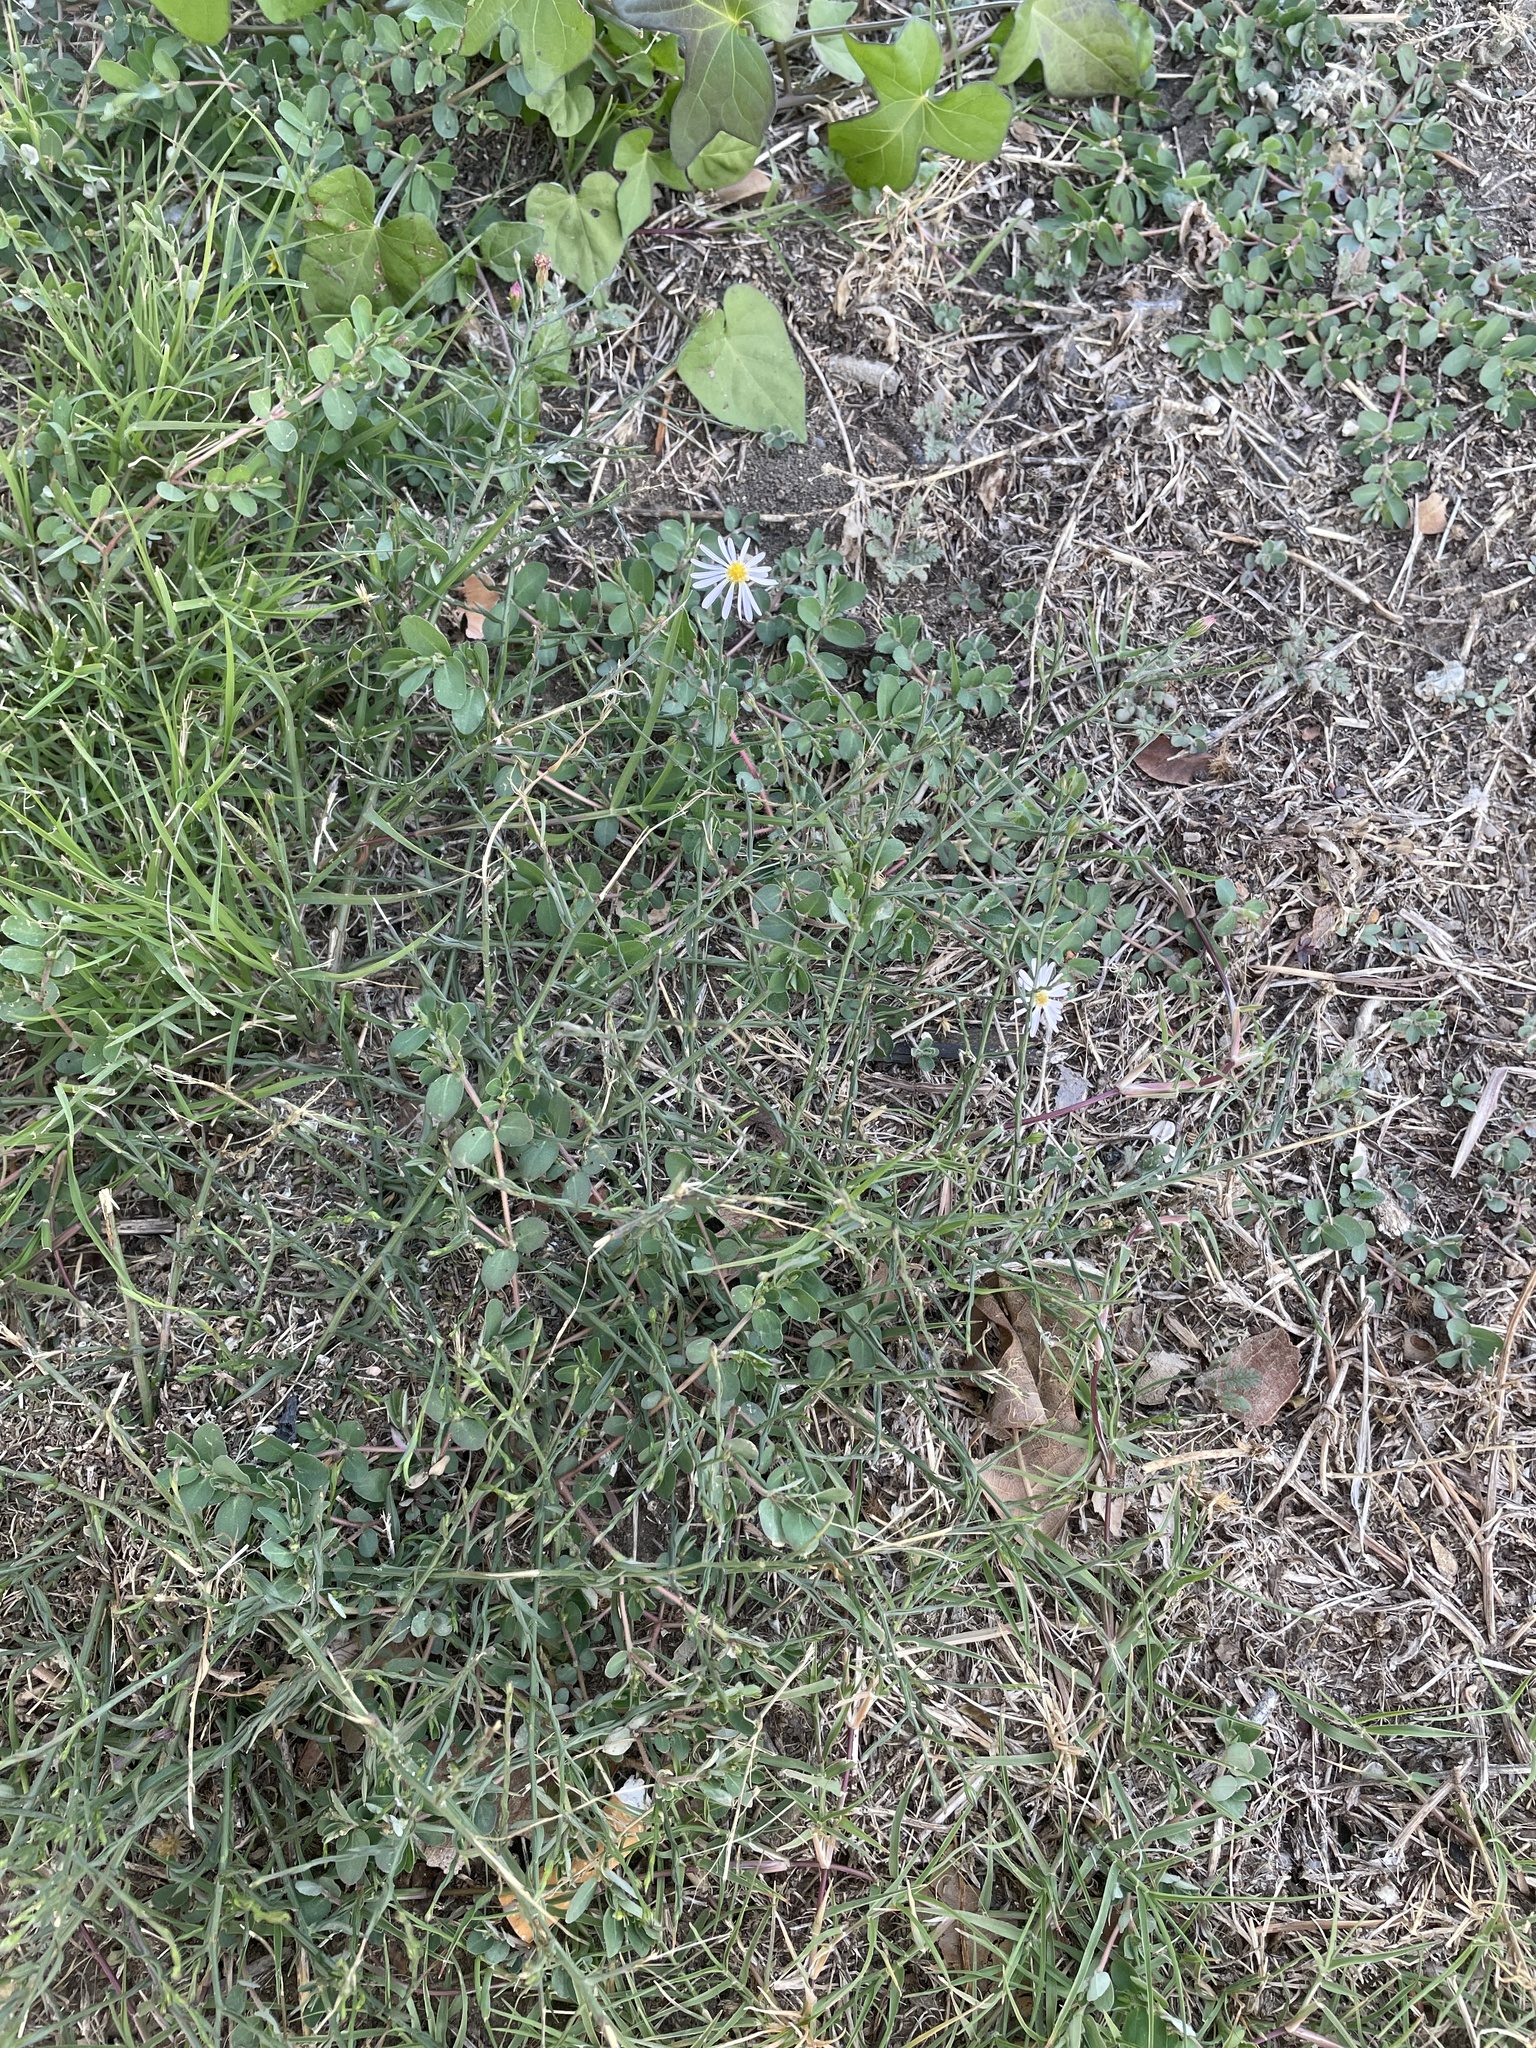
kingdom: Plantae
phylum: Tracheophyta
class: Magnoliopsida
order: Asterales
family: Asteraceae
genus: Symphyotrichum
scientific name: Symphyotrichum divaricatum
